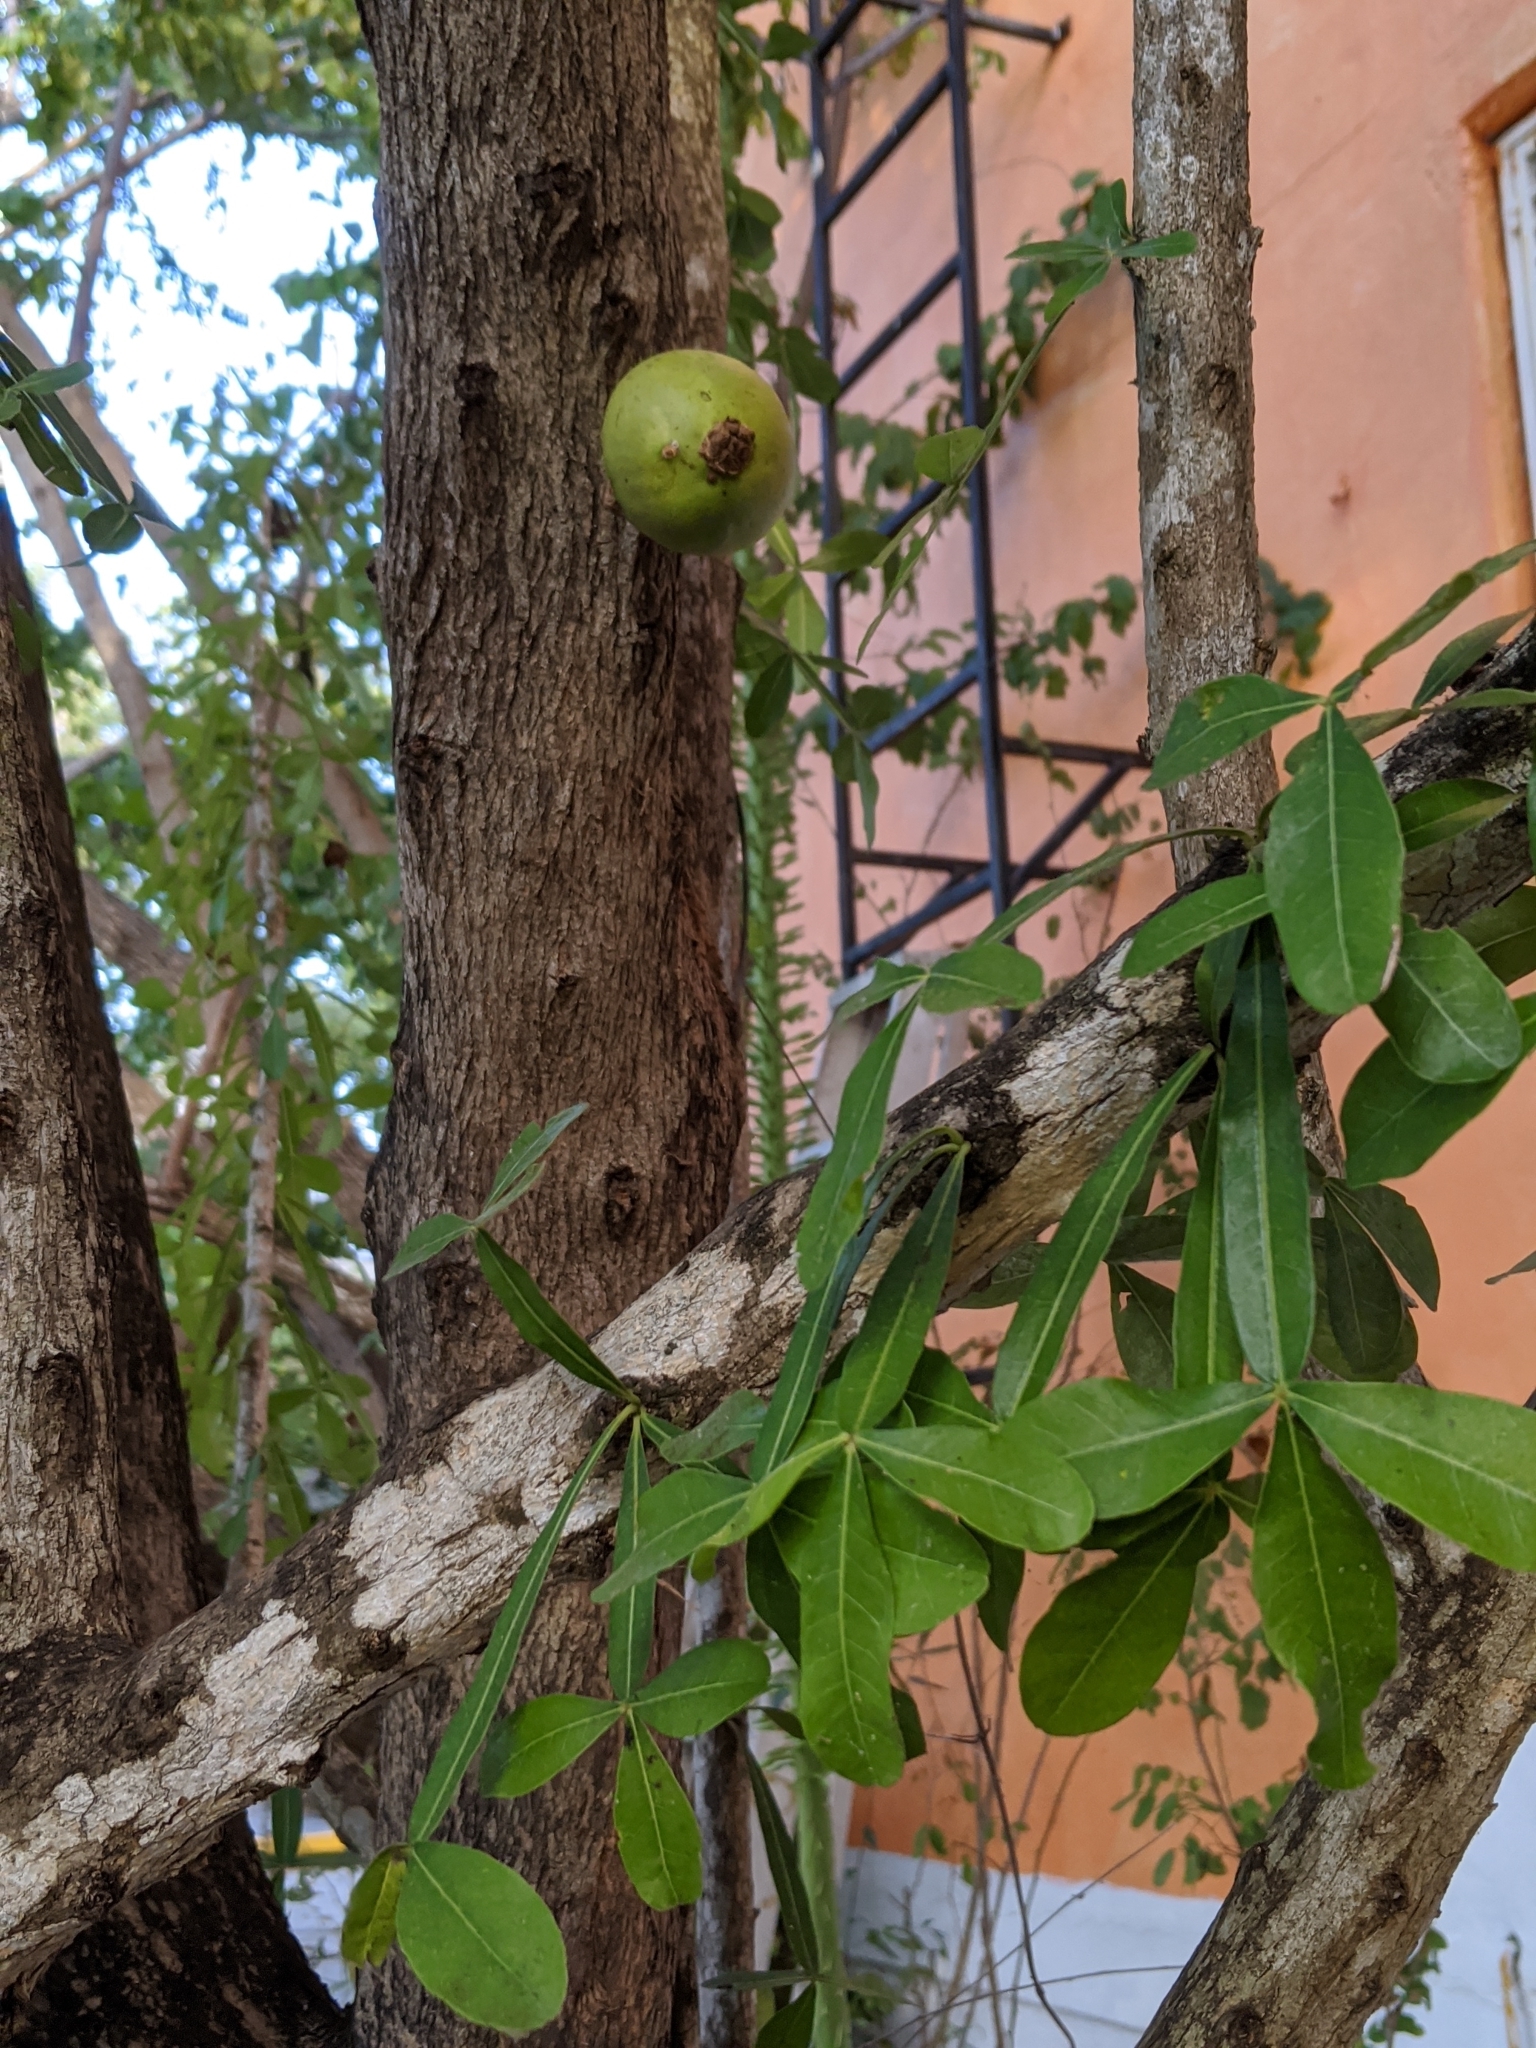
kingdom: Plantae
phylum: Tracheophyta
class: Magnoliopsida
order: Lamiales
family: Bignoniaceae
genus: Crescentia
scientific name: Crescentia alata
